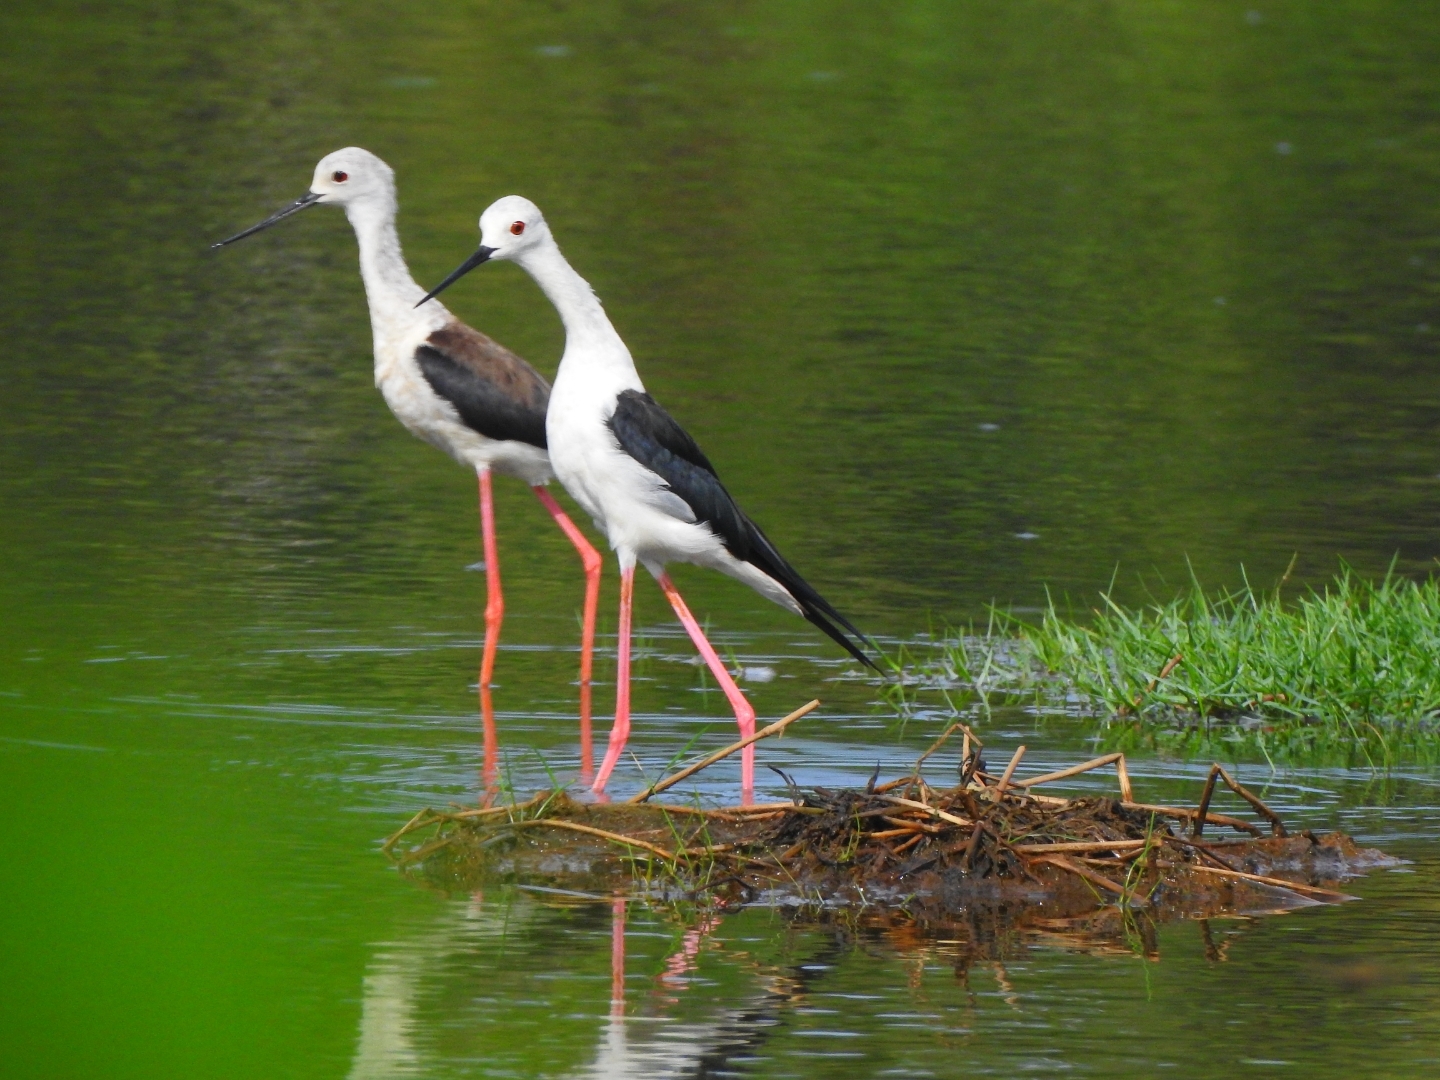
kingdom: Animalia
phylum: Chordata
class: Aves
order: Charadriiformes
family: Recurvirostridae
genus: Himantopus
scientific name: Himantopus himantopus
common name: Black-winged stilt
